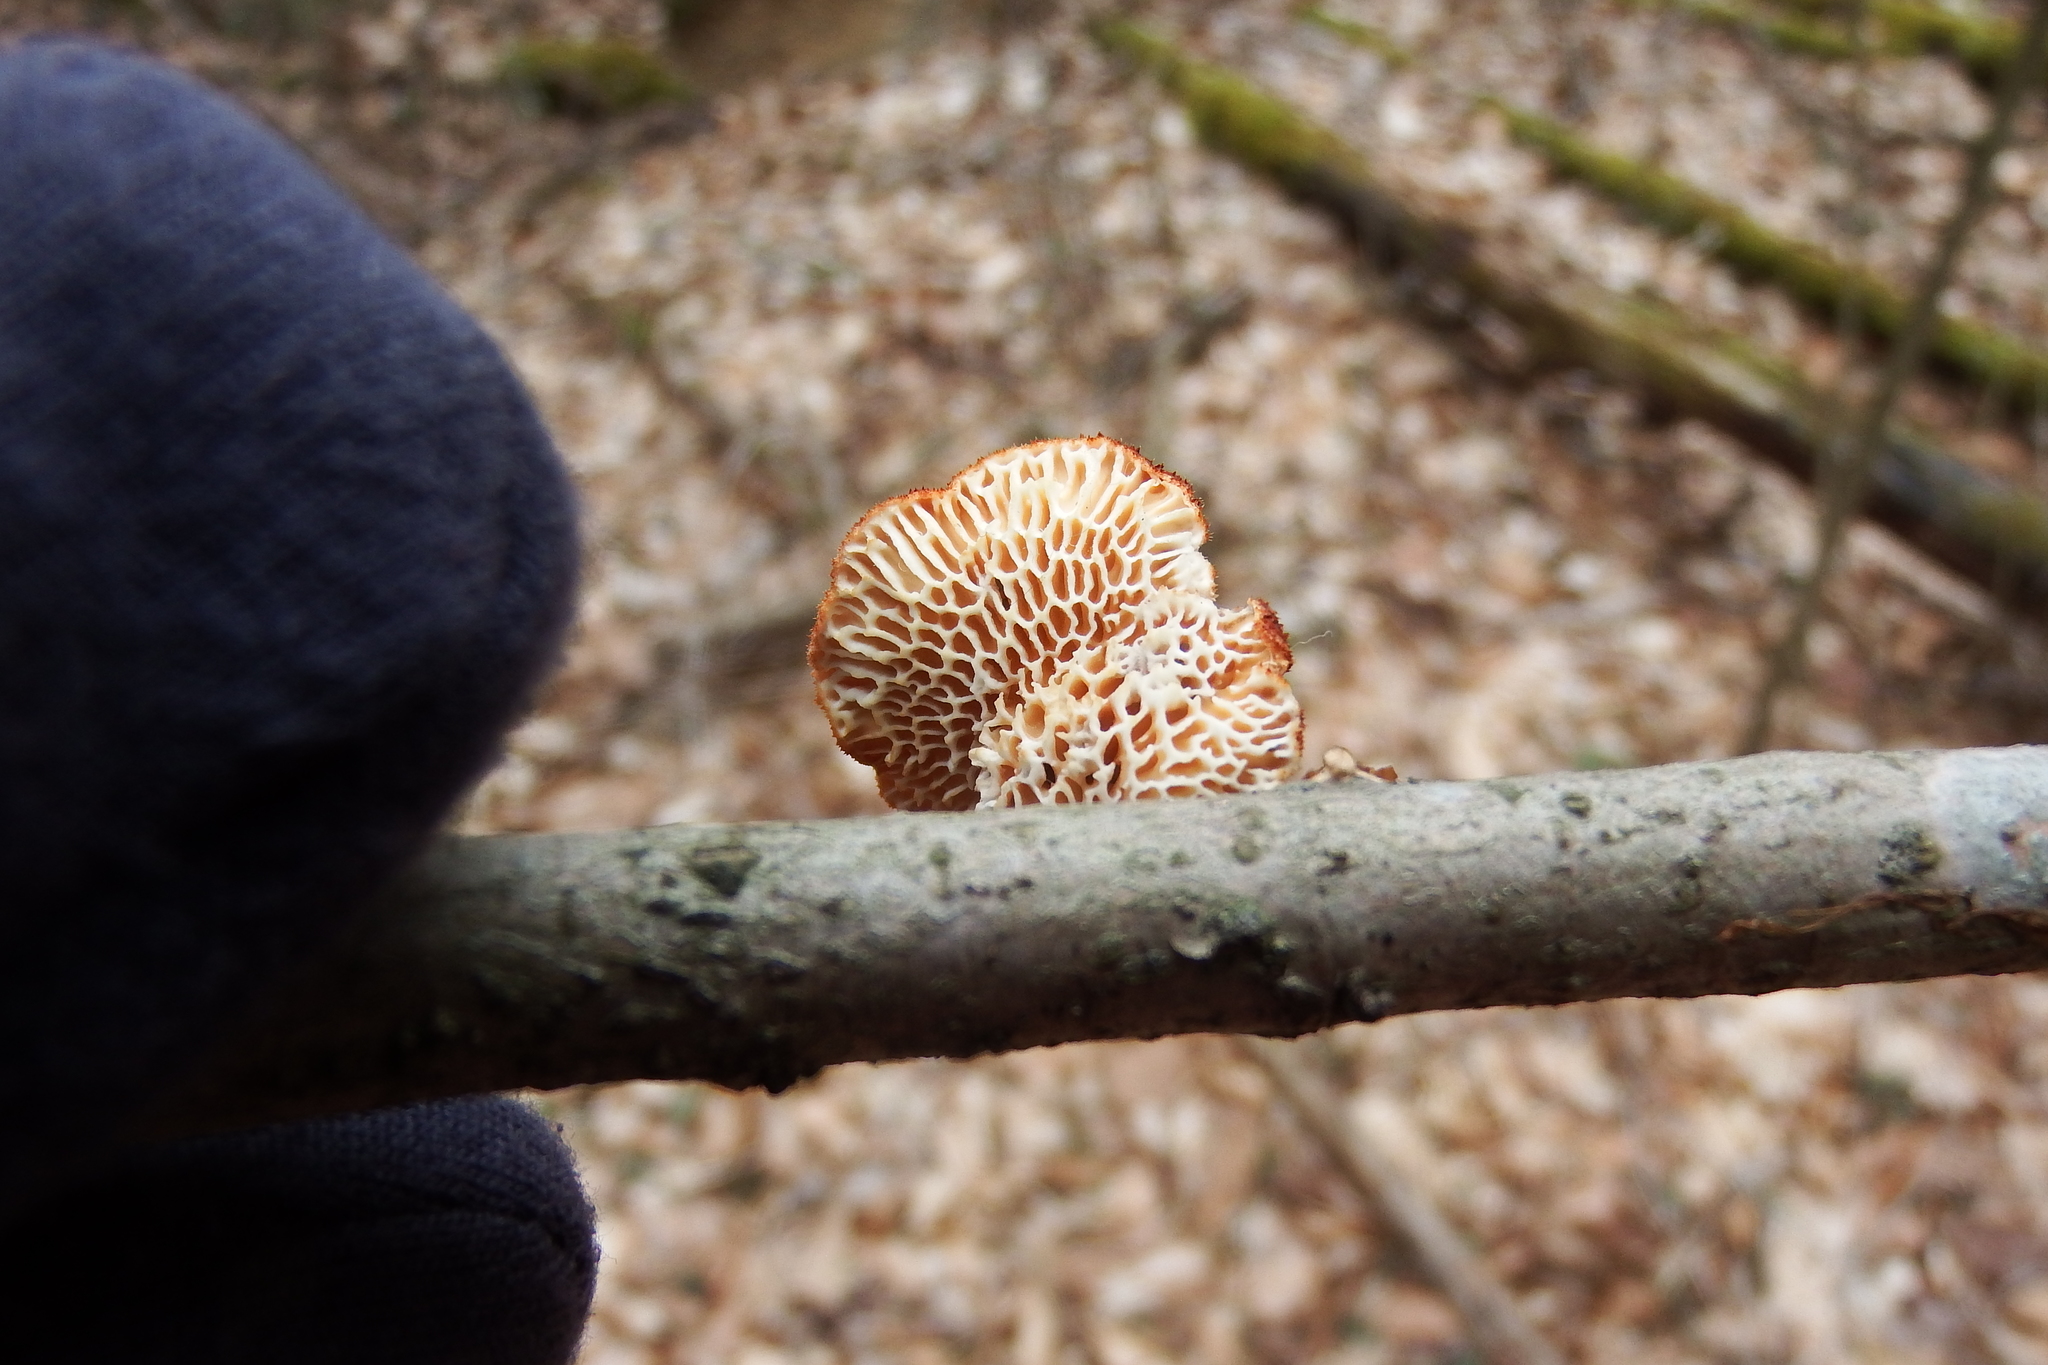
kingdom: Fungi
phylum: Basidiomycota
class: Agaricomycetes
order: Polyporales
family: Polyporaceae
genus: Neofavolus
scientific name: Neofavolus alveolaris
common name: Hexagonal-pored polypore
